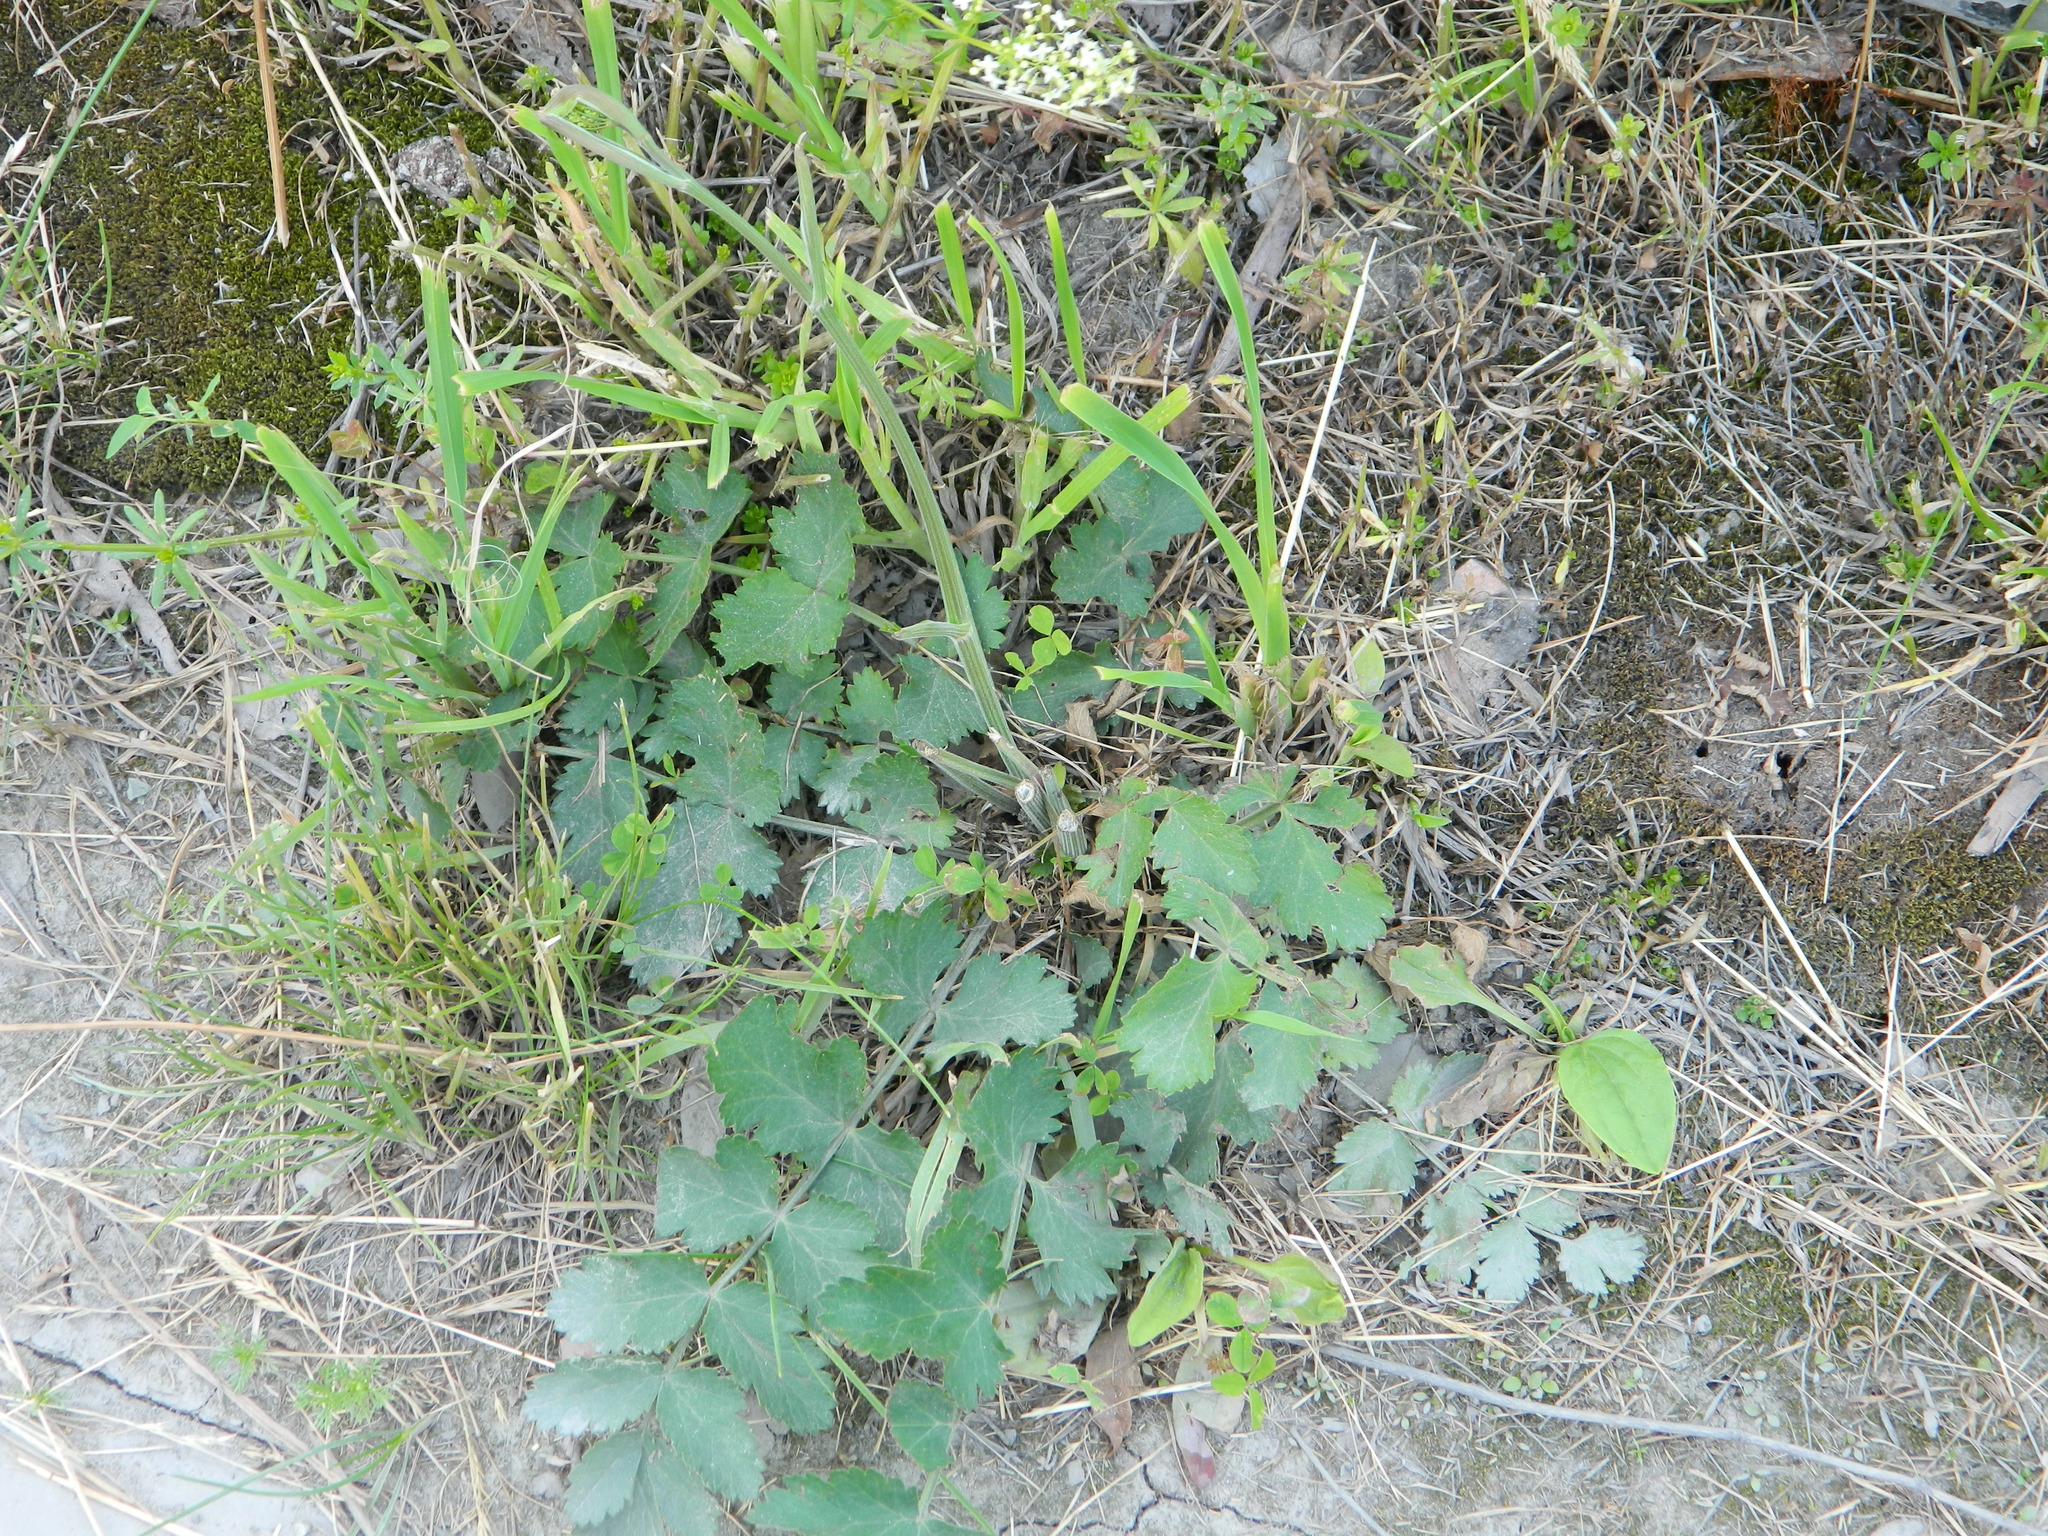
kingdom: Plantae
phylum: Tracheophyta
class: Magnoliopsida
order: Apiales
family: Apiaceae
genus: Pimpinella
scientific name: Pimpinella saxifraga
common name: Burnet-saxifrage
